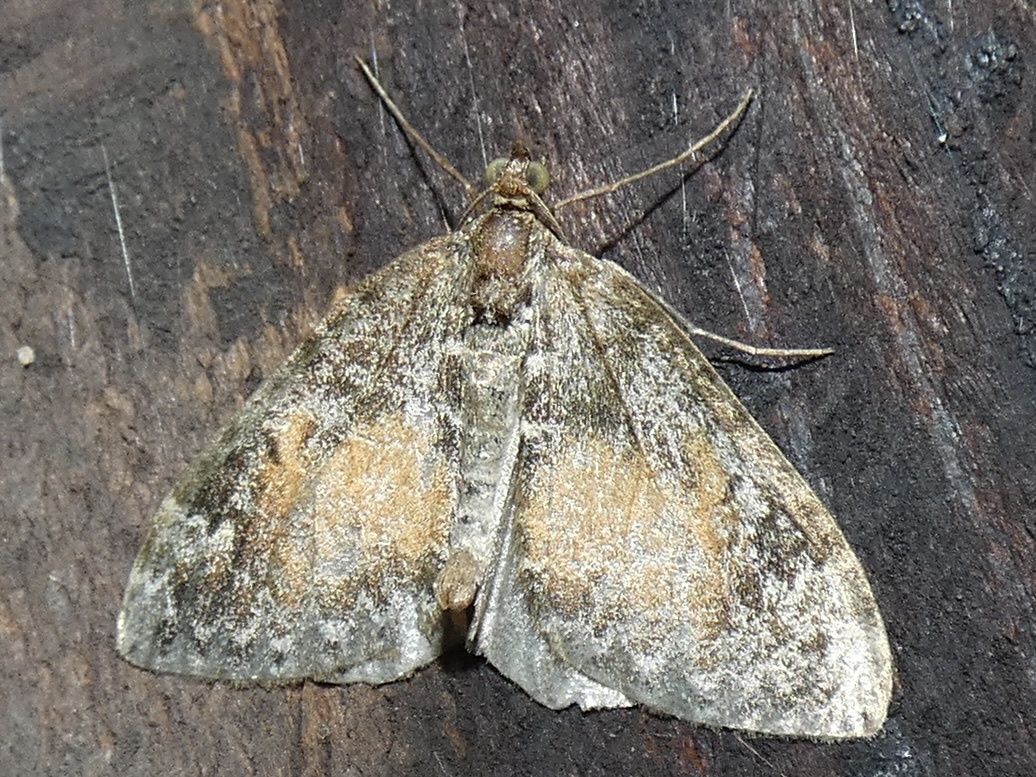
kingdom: Animalia
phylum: Arthropoda
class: Insecta
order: Lepidoptera
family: Geometridae
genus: Dysstroma
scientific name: Dysstroma truncata
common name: Common marbled carpet
